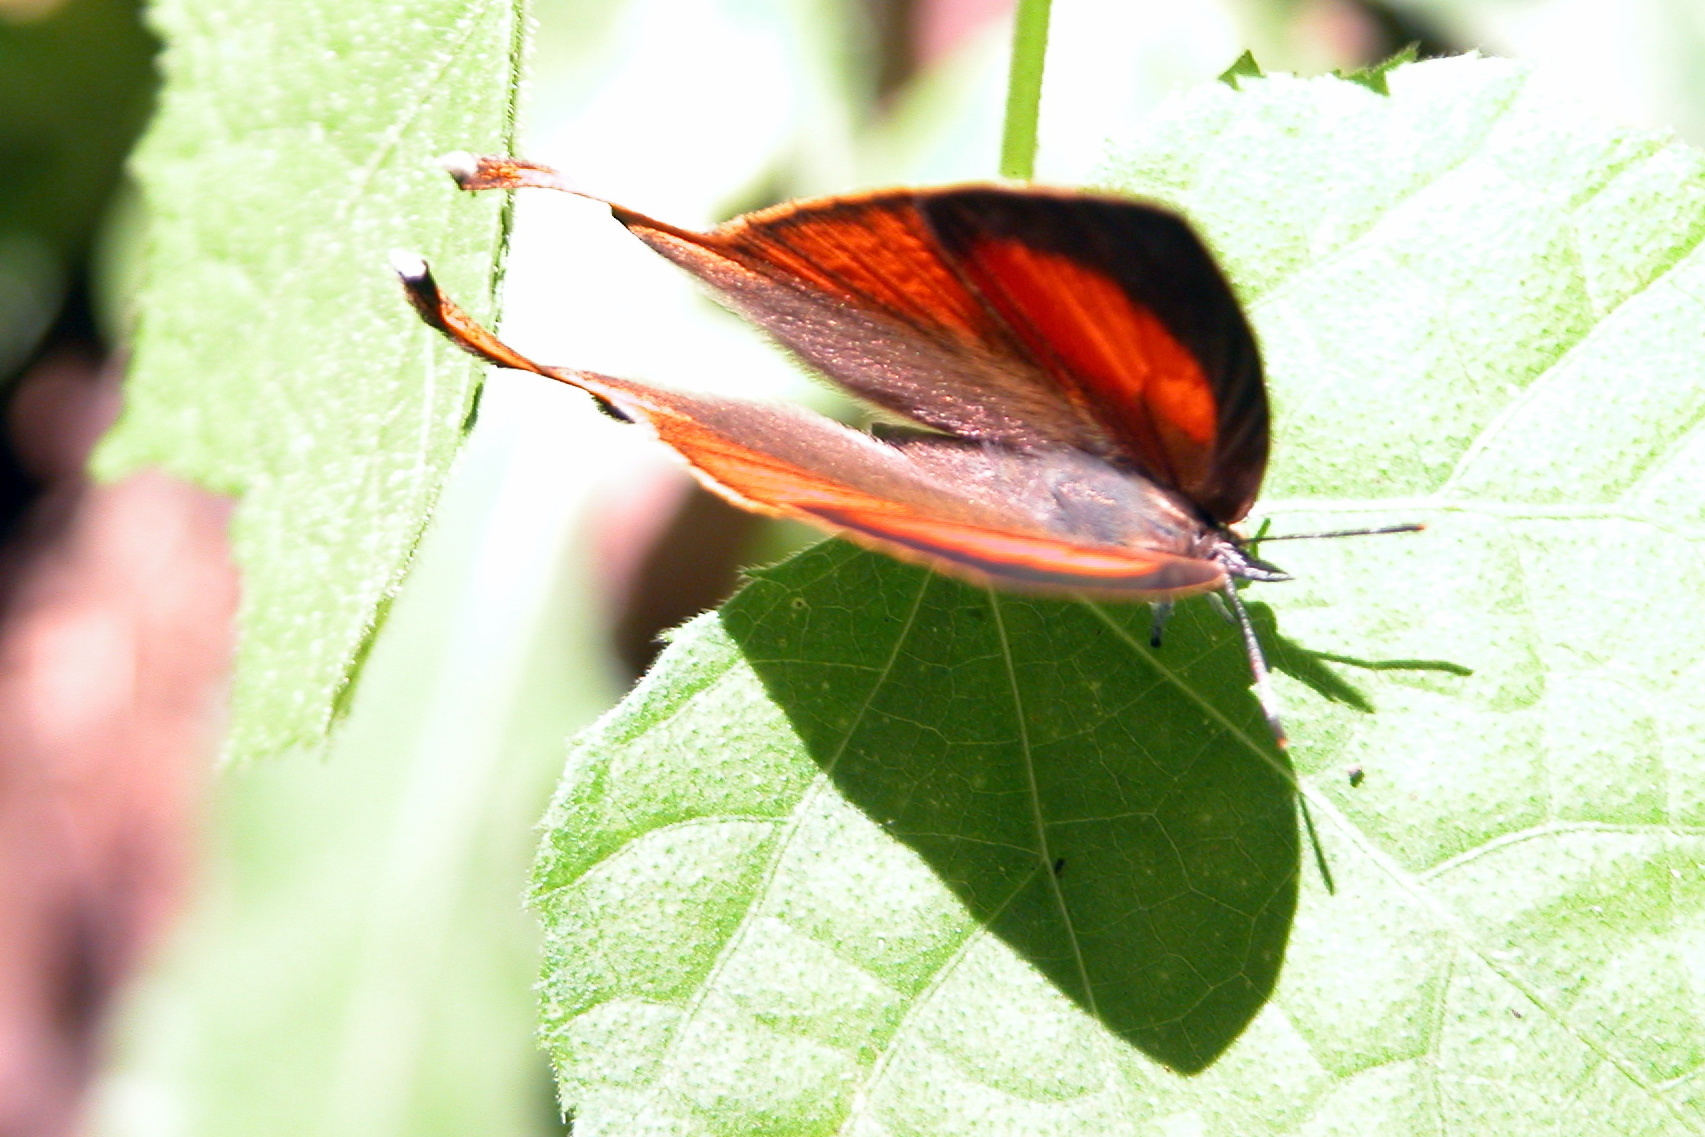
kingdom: Animalia
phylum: Arthropoda
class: Insecta
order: Lepidoptera
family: Lycaenidae
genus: Loxura
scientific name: Loxura atymnus
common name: Common yamfly
